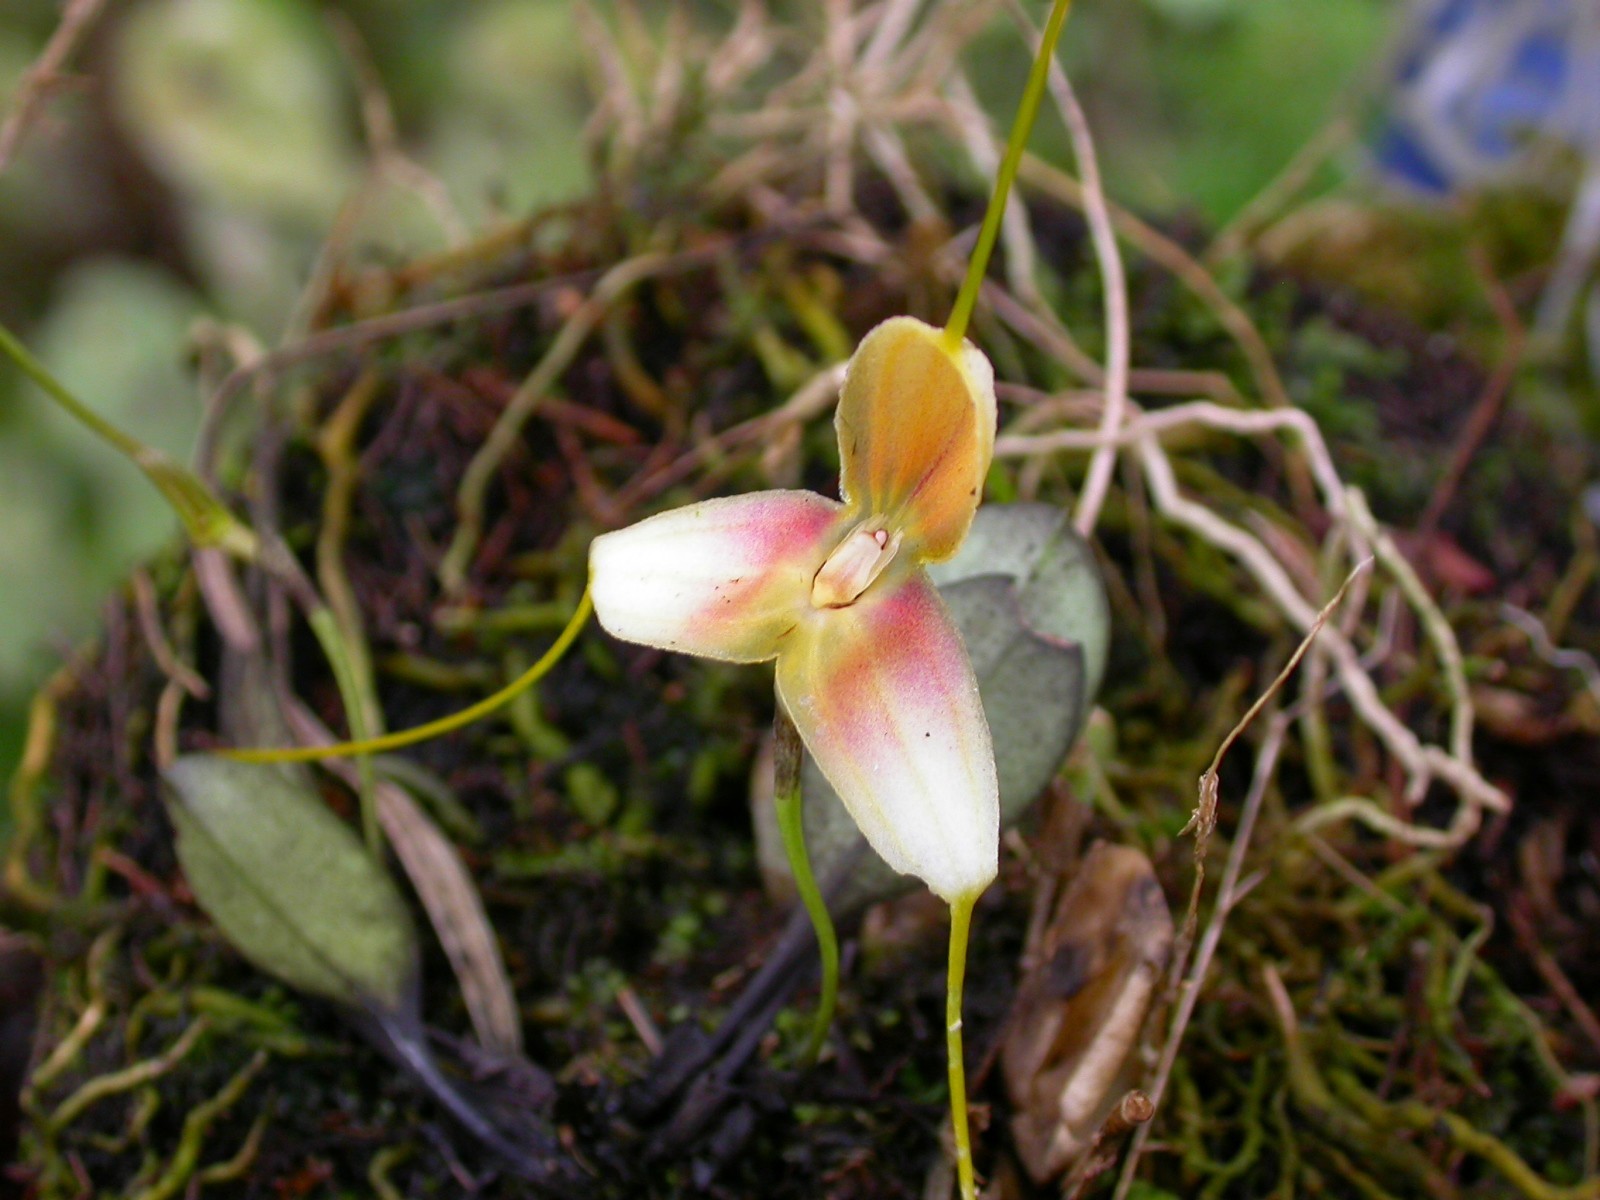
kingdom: Plantae
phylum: Tracheophyta
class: Liliopsida
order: Asparagales
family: Orchidaceae
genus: Masdevallia
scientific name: Masdevallia vexillifera
